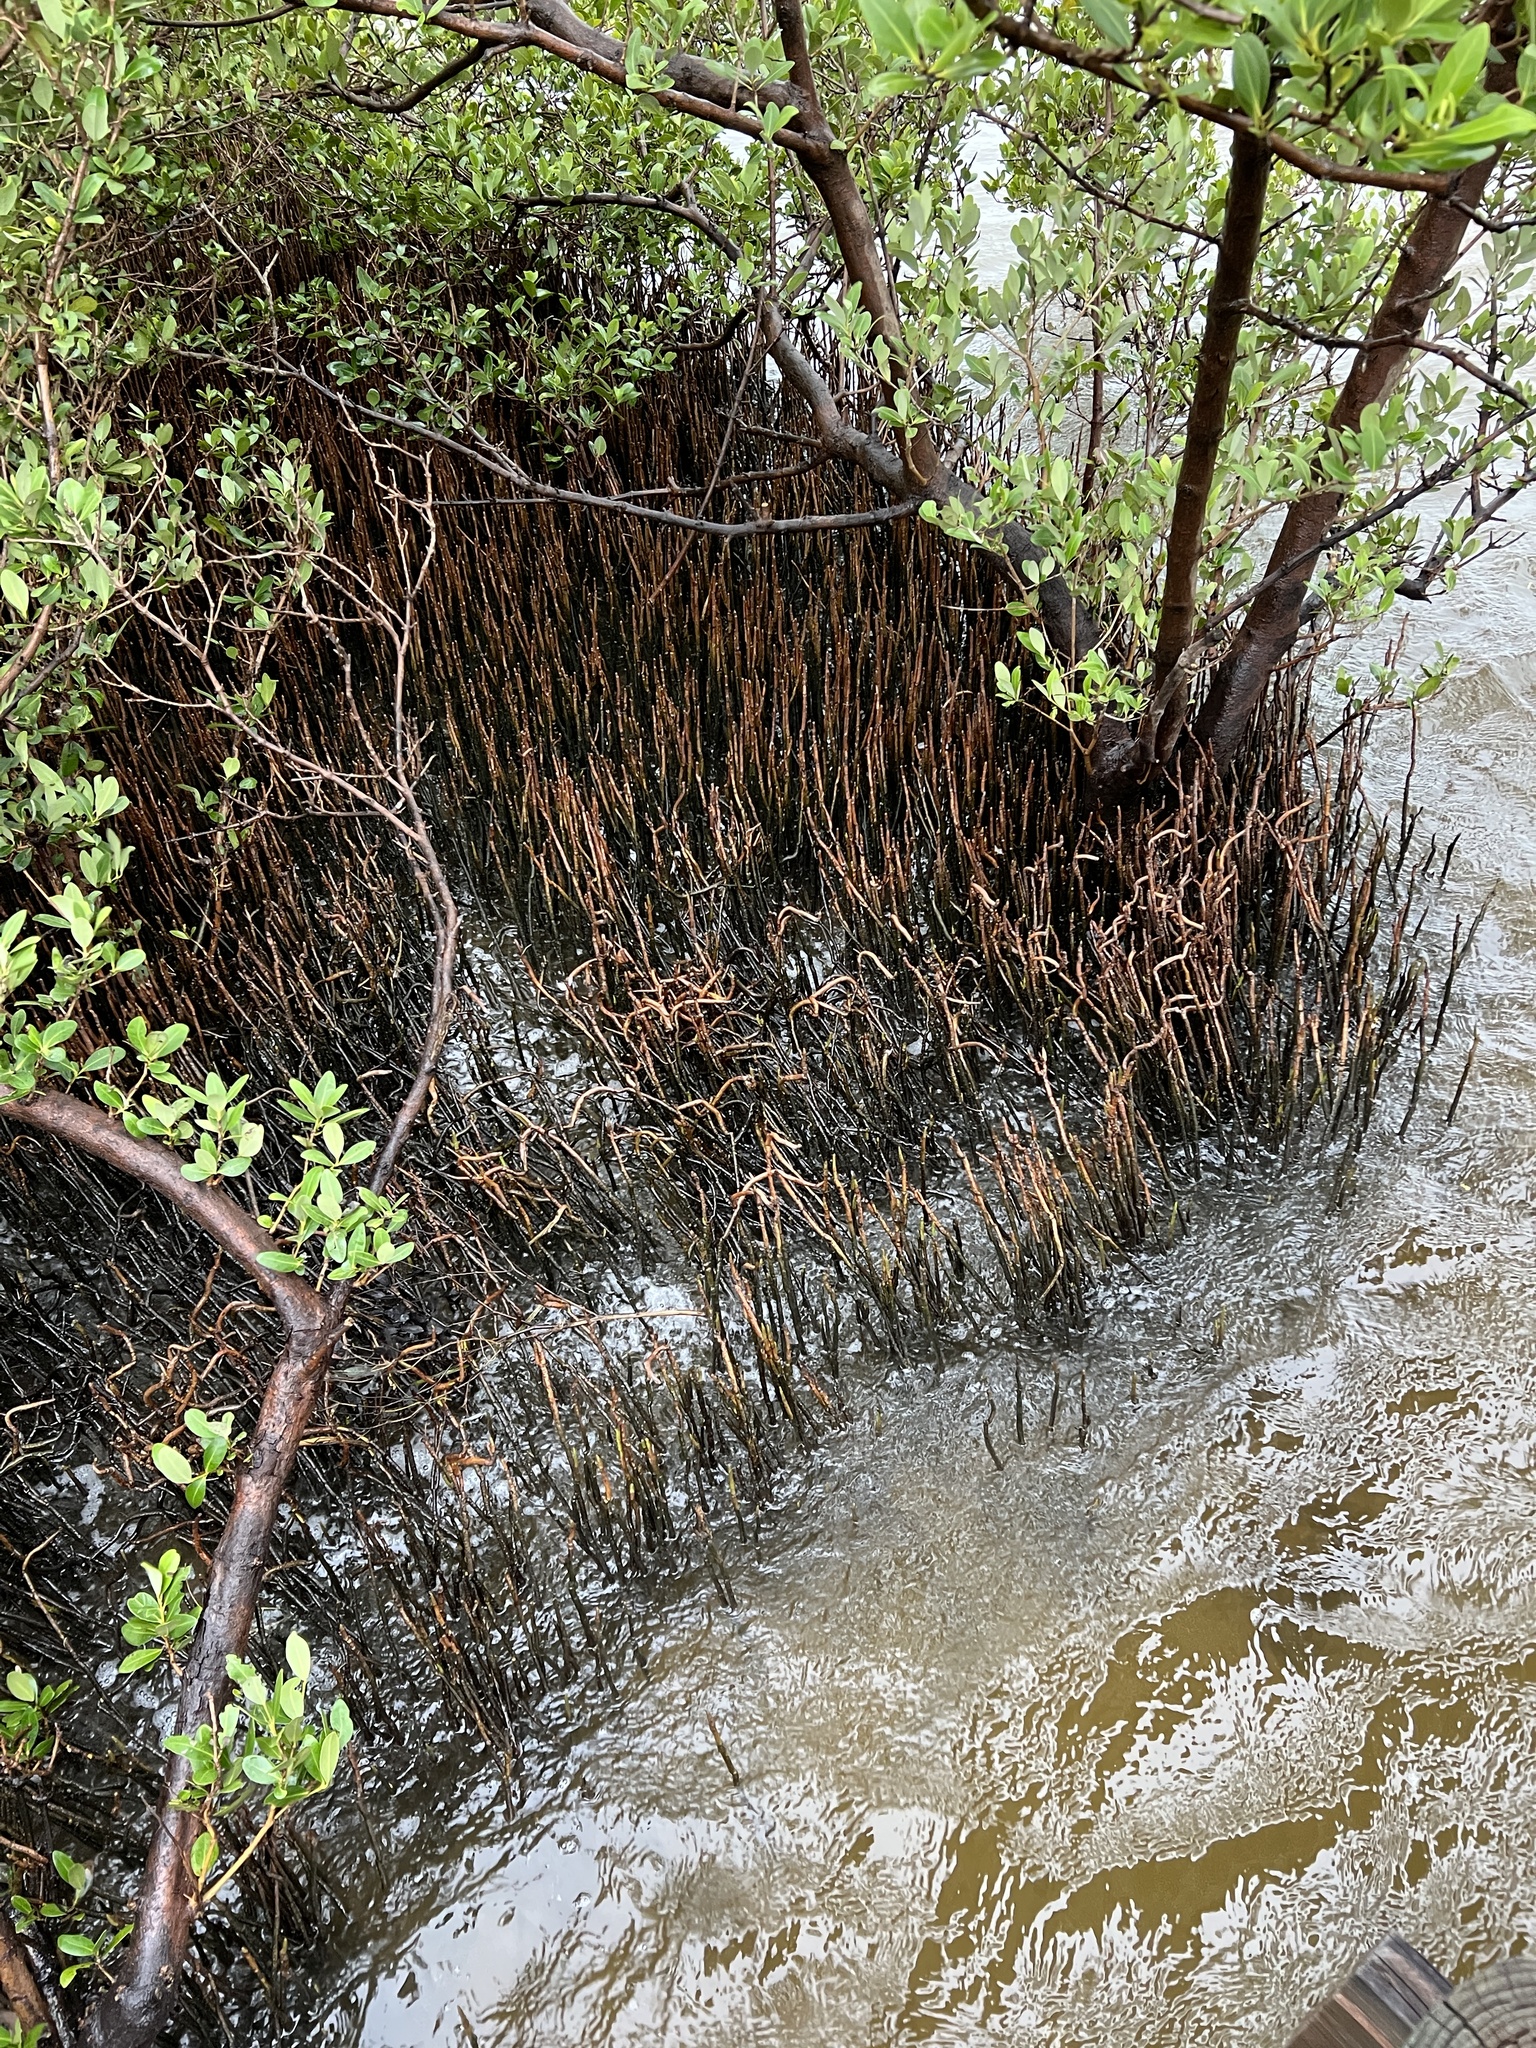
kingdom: Plantae
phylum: Tracheophyta
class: Magnoliopsida
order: Lamiales
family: Acanthaceae
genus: Avicennia
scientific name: Avicennia germinans
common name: Black mangrove
